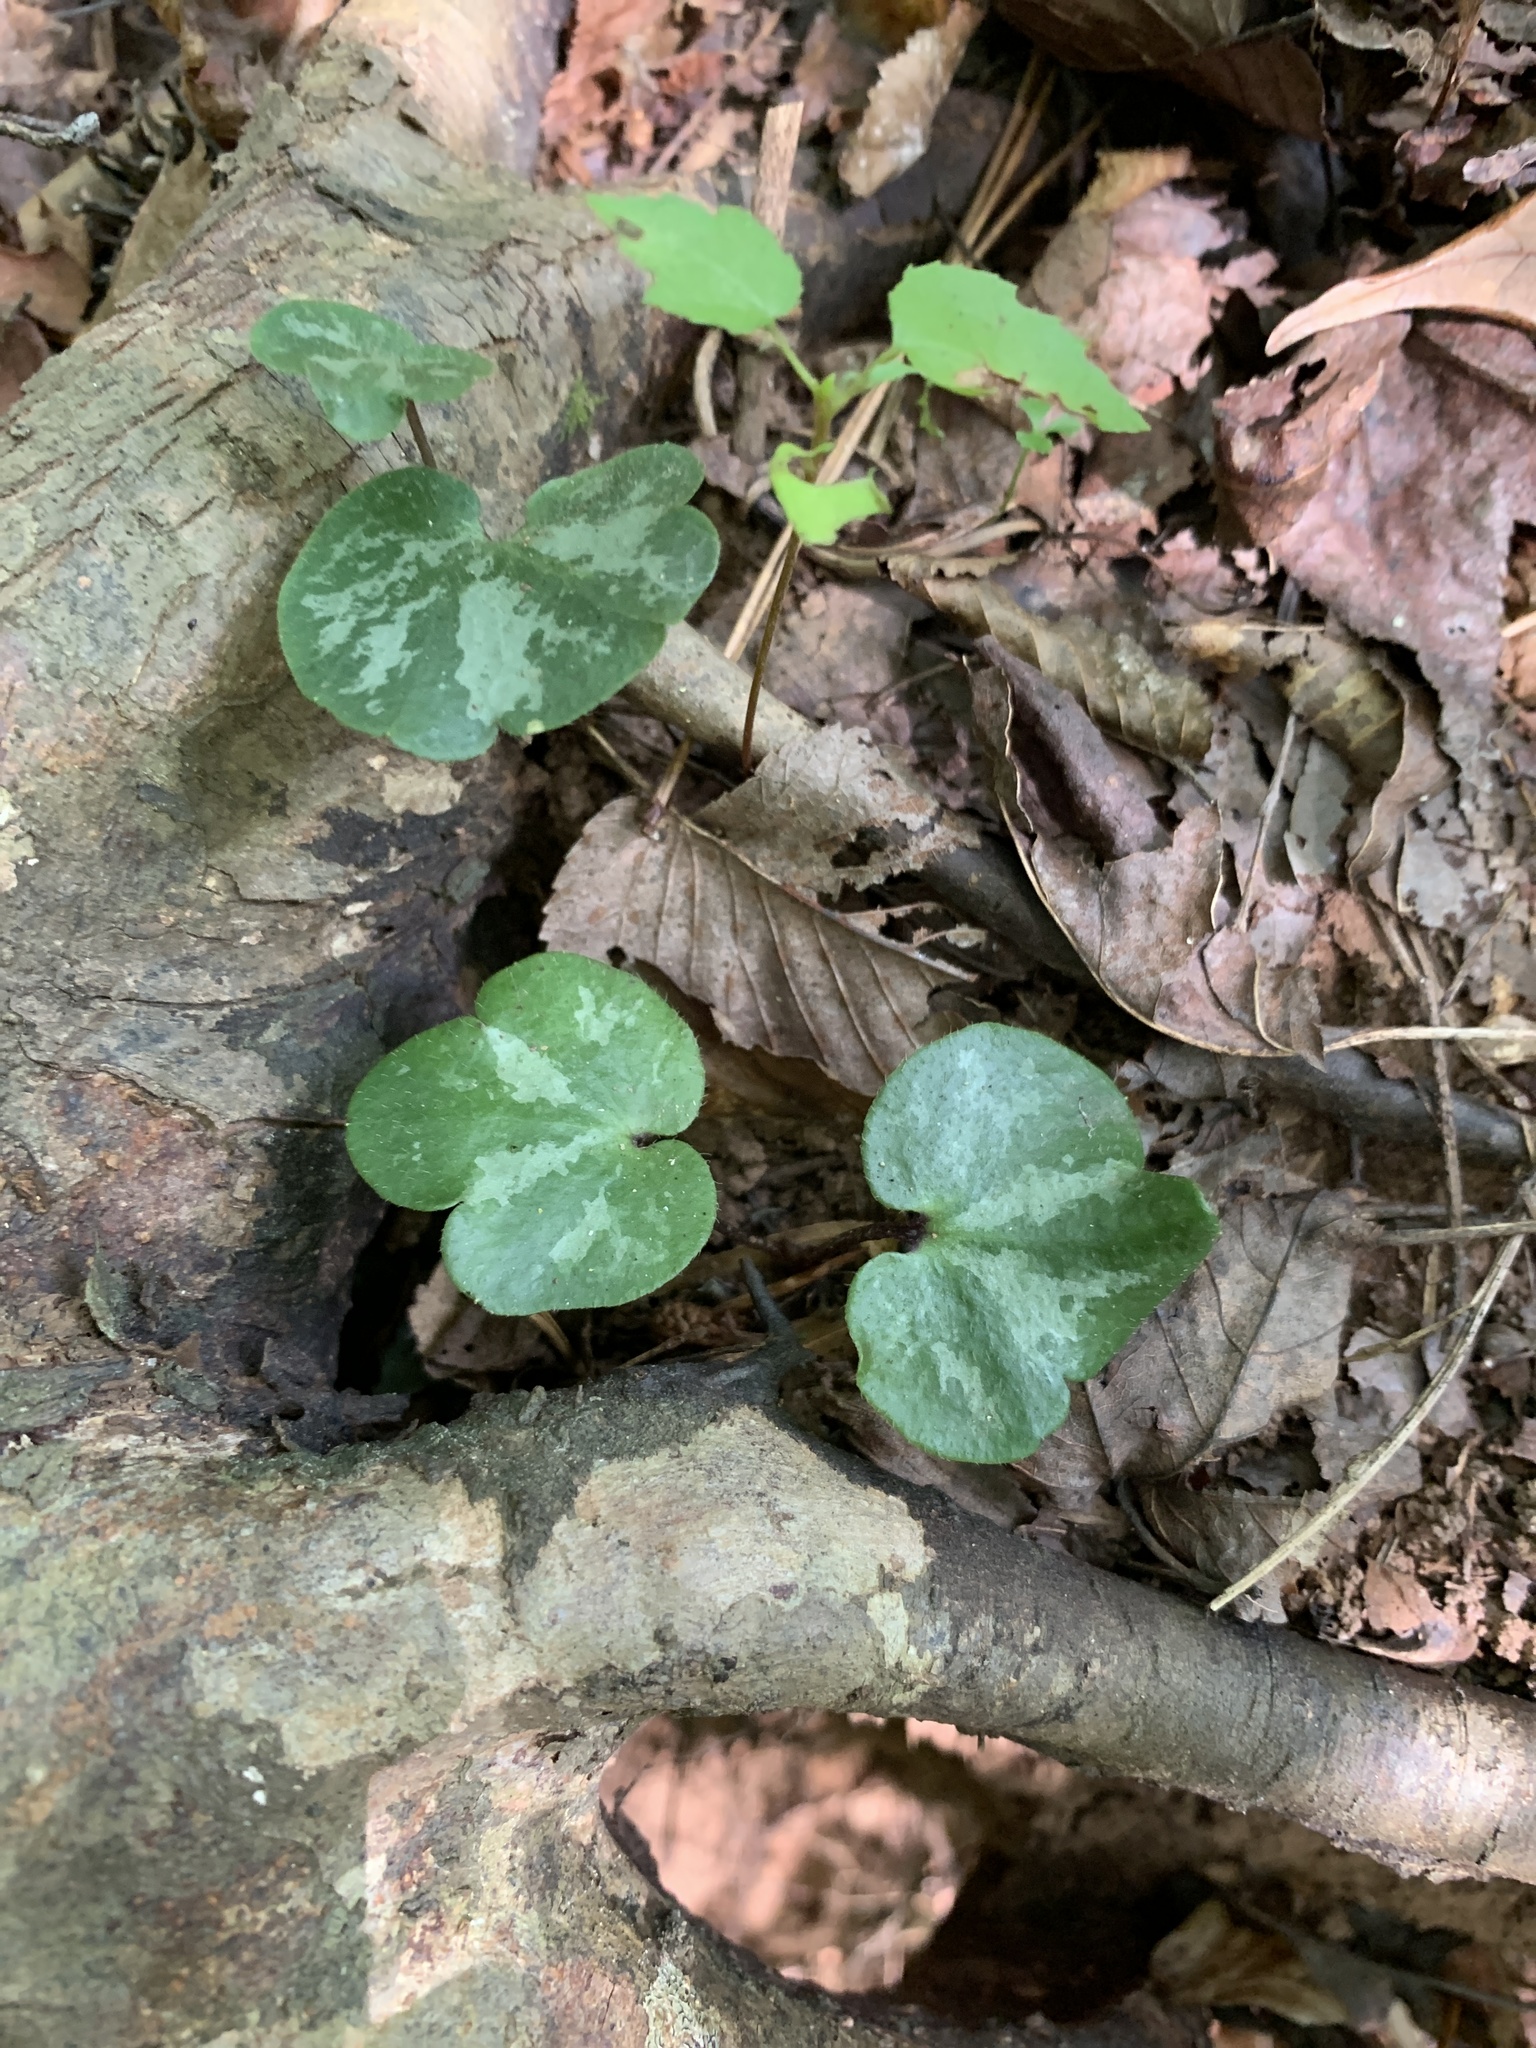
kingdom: Plantae
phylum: Tracheophyta
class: Magnoliopsida
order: Ranunculales
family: Ranunculaceae
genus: Hepatica
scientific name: Hepatica americana
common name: American hepatica
